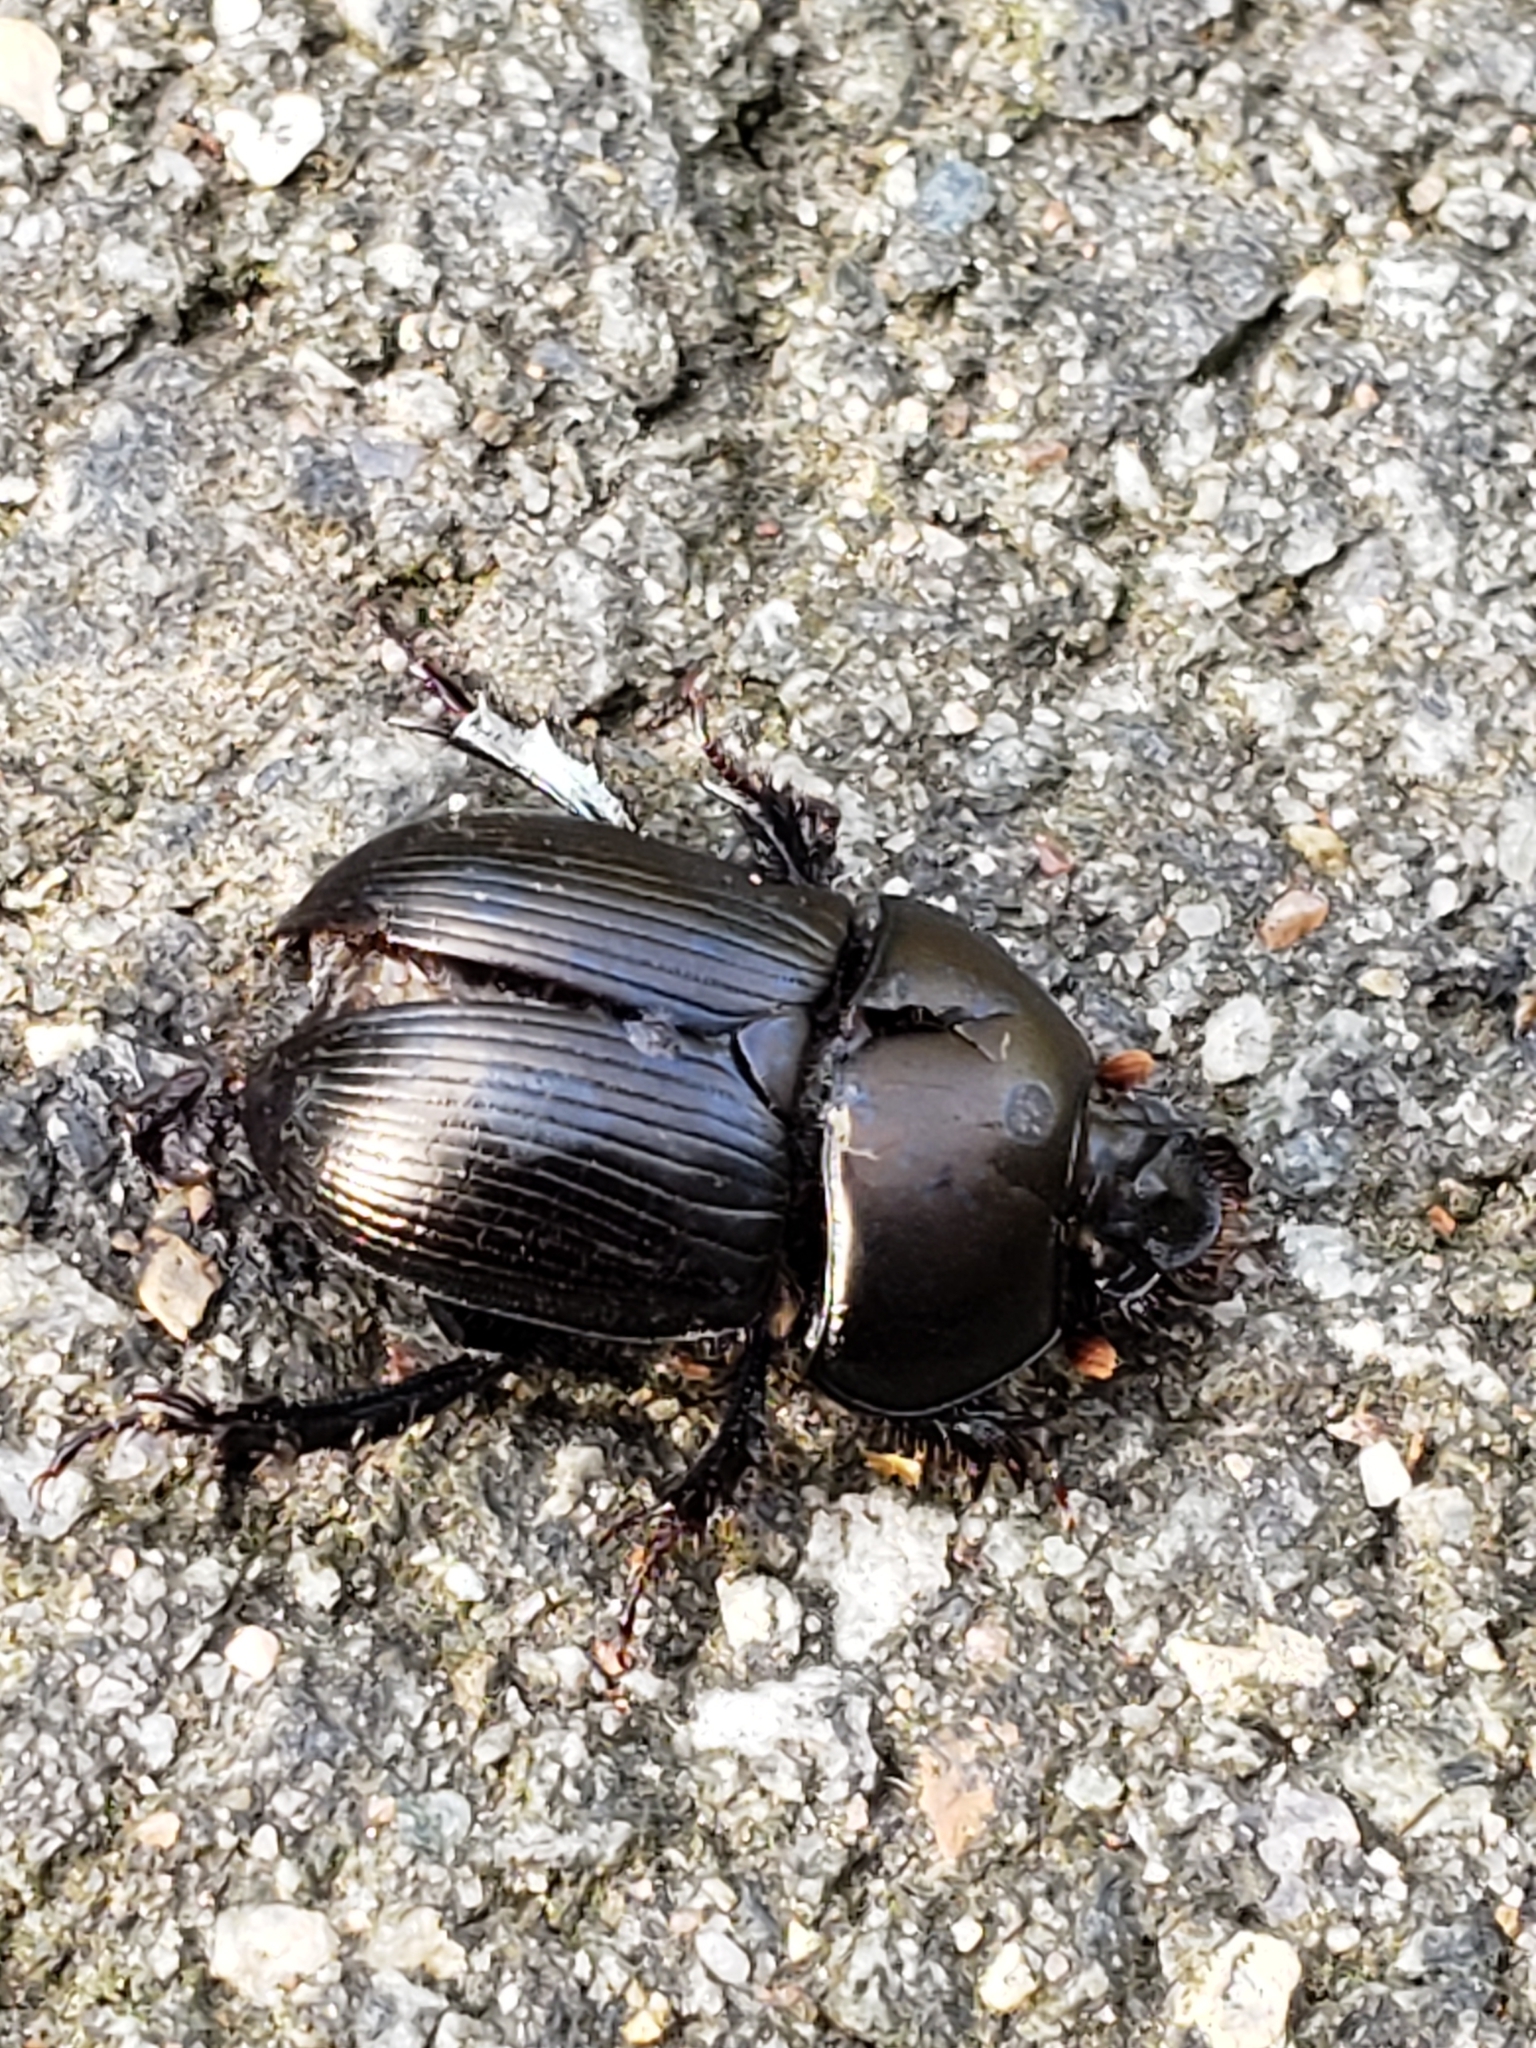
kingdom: Animalia
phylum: Arthropoda
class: Insecta
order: Coleoptera
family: Geotrupidae
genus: Cnemotrupes
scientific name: Cnemotrupes semiopacus
